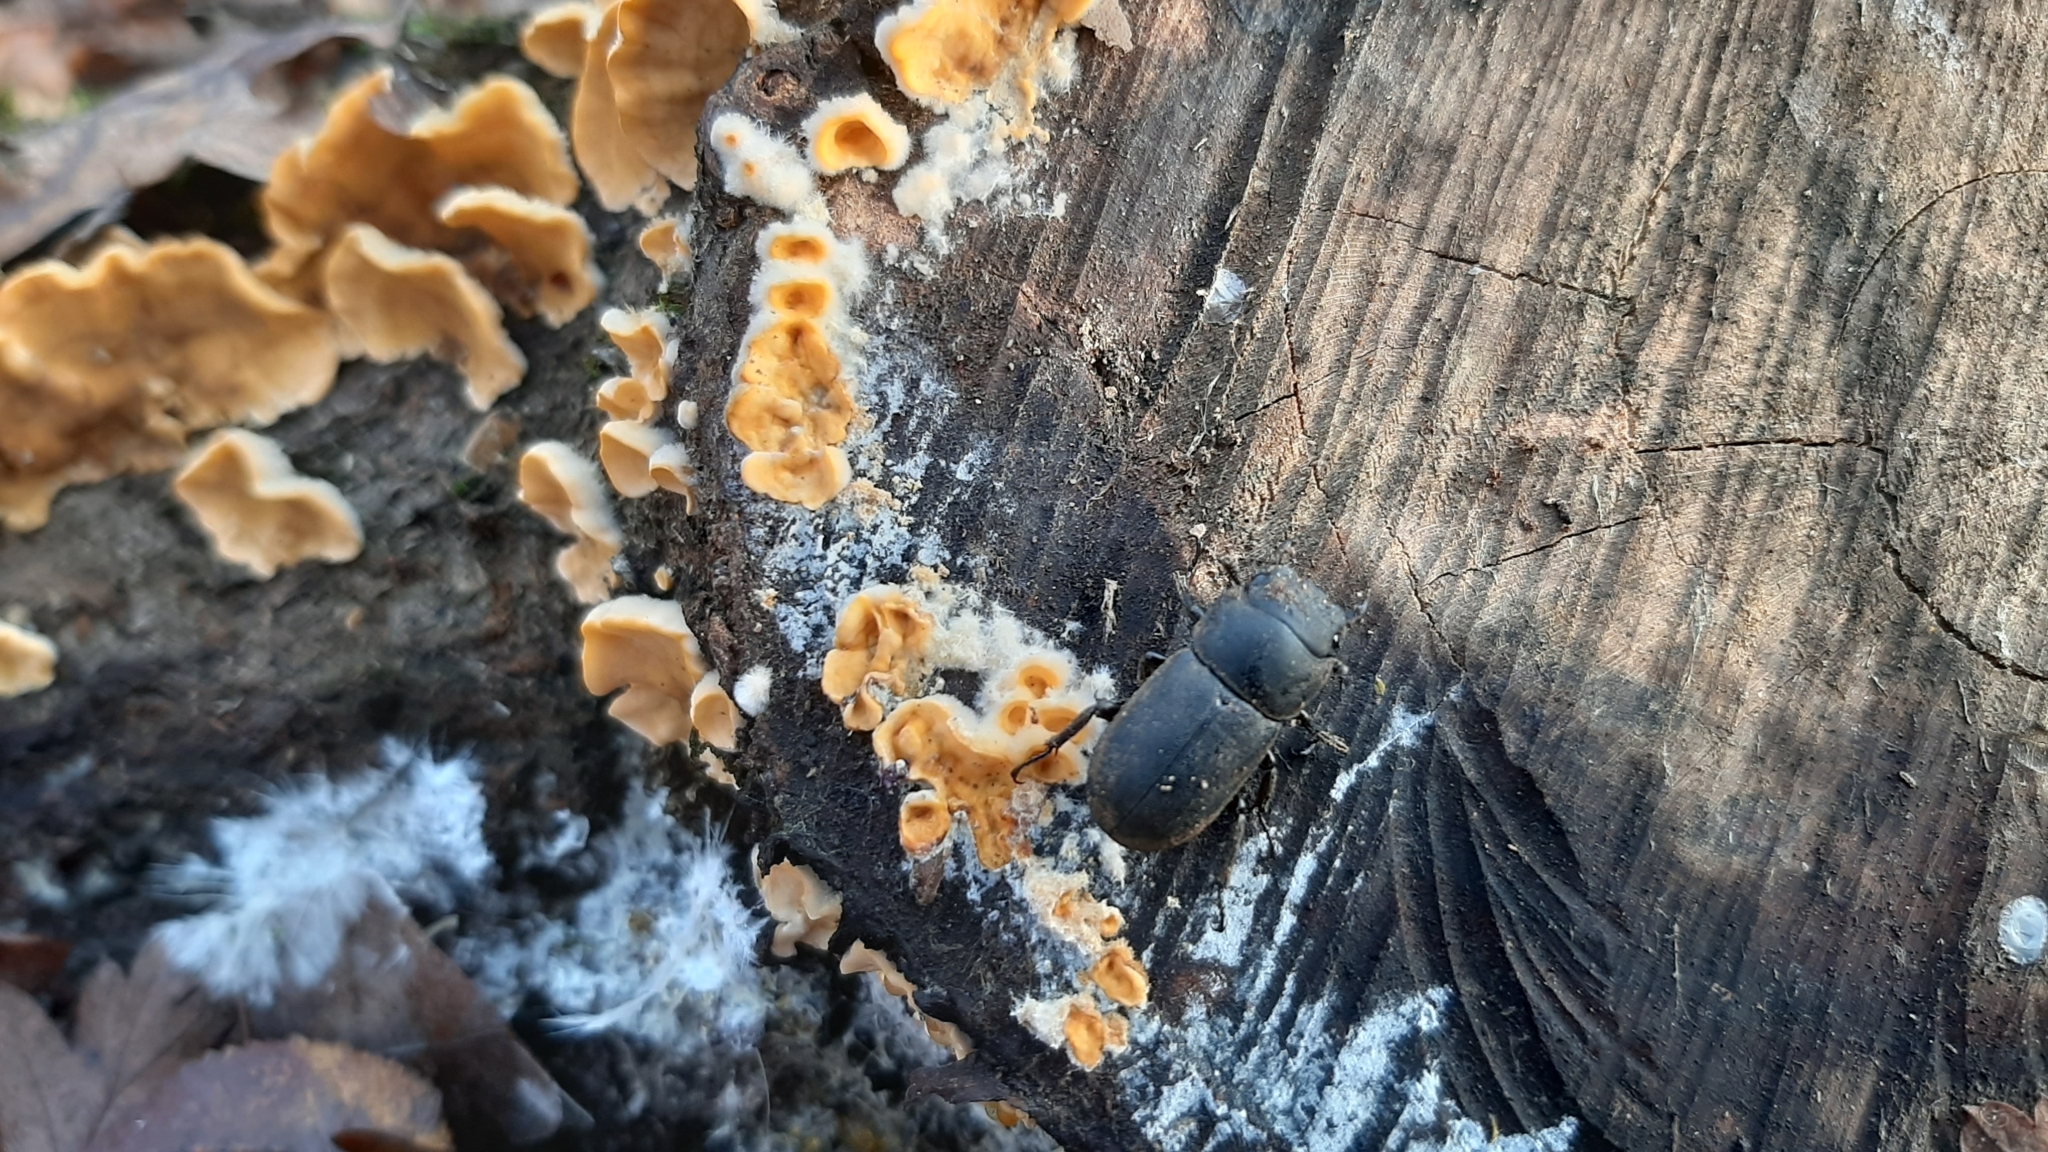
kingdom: Animalia
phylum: Arthropoda
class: Insecta
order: Coleoptera
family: Lucanidae
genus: Dorcus
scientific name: Dorcus parallelipipedus
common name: Lesser stag beetle
